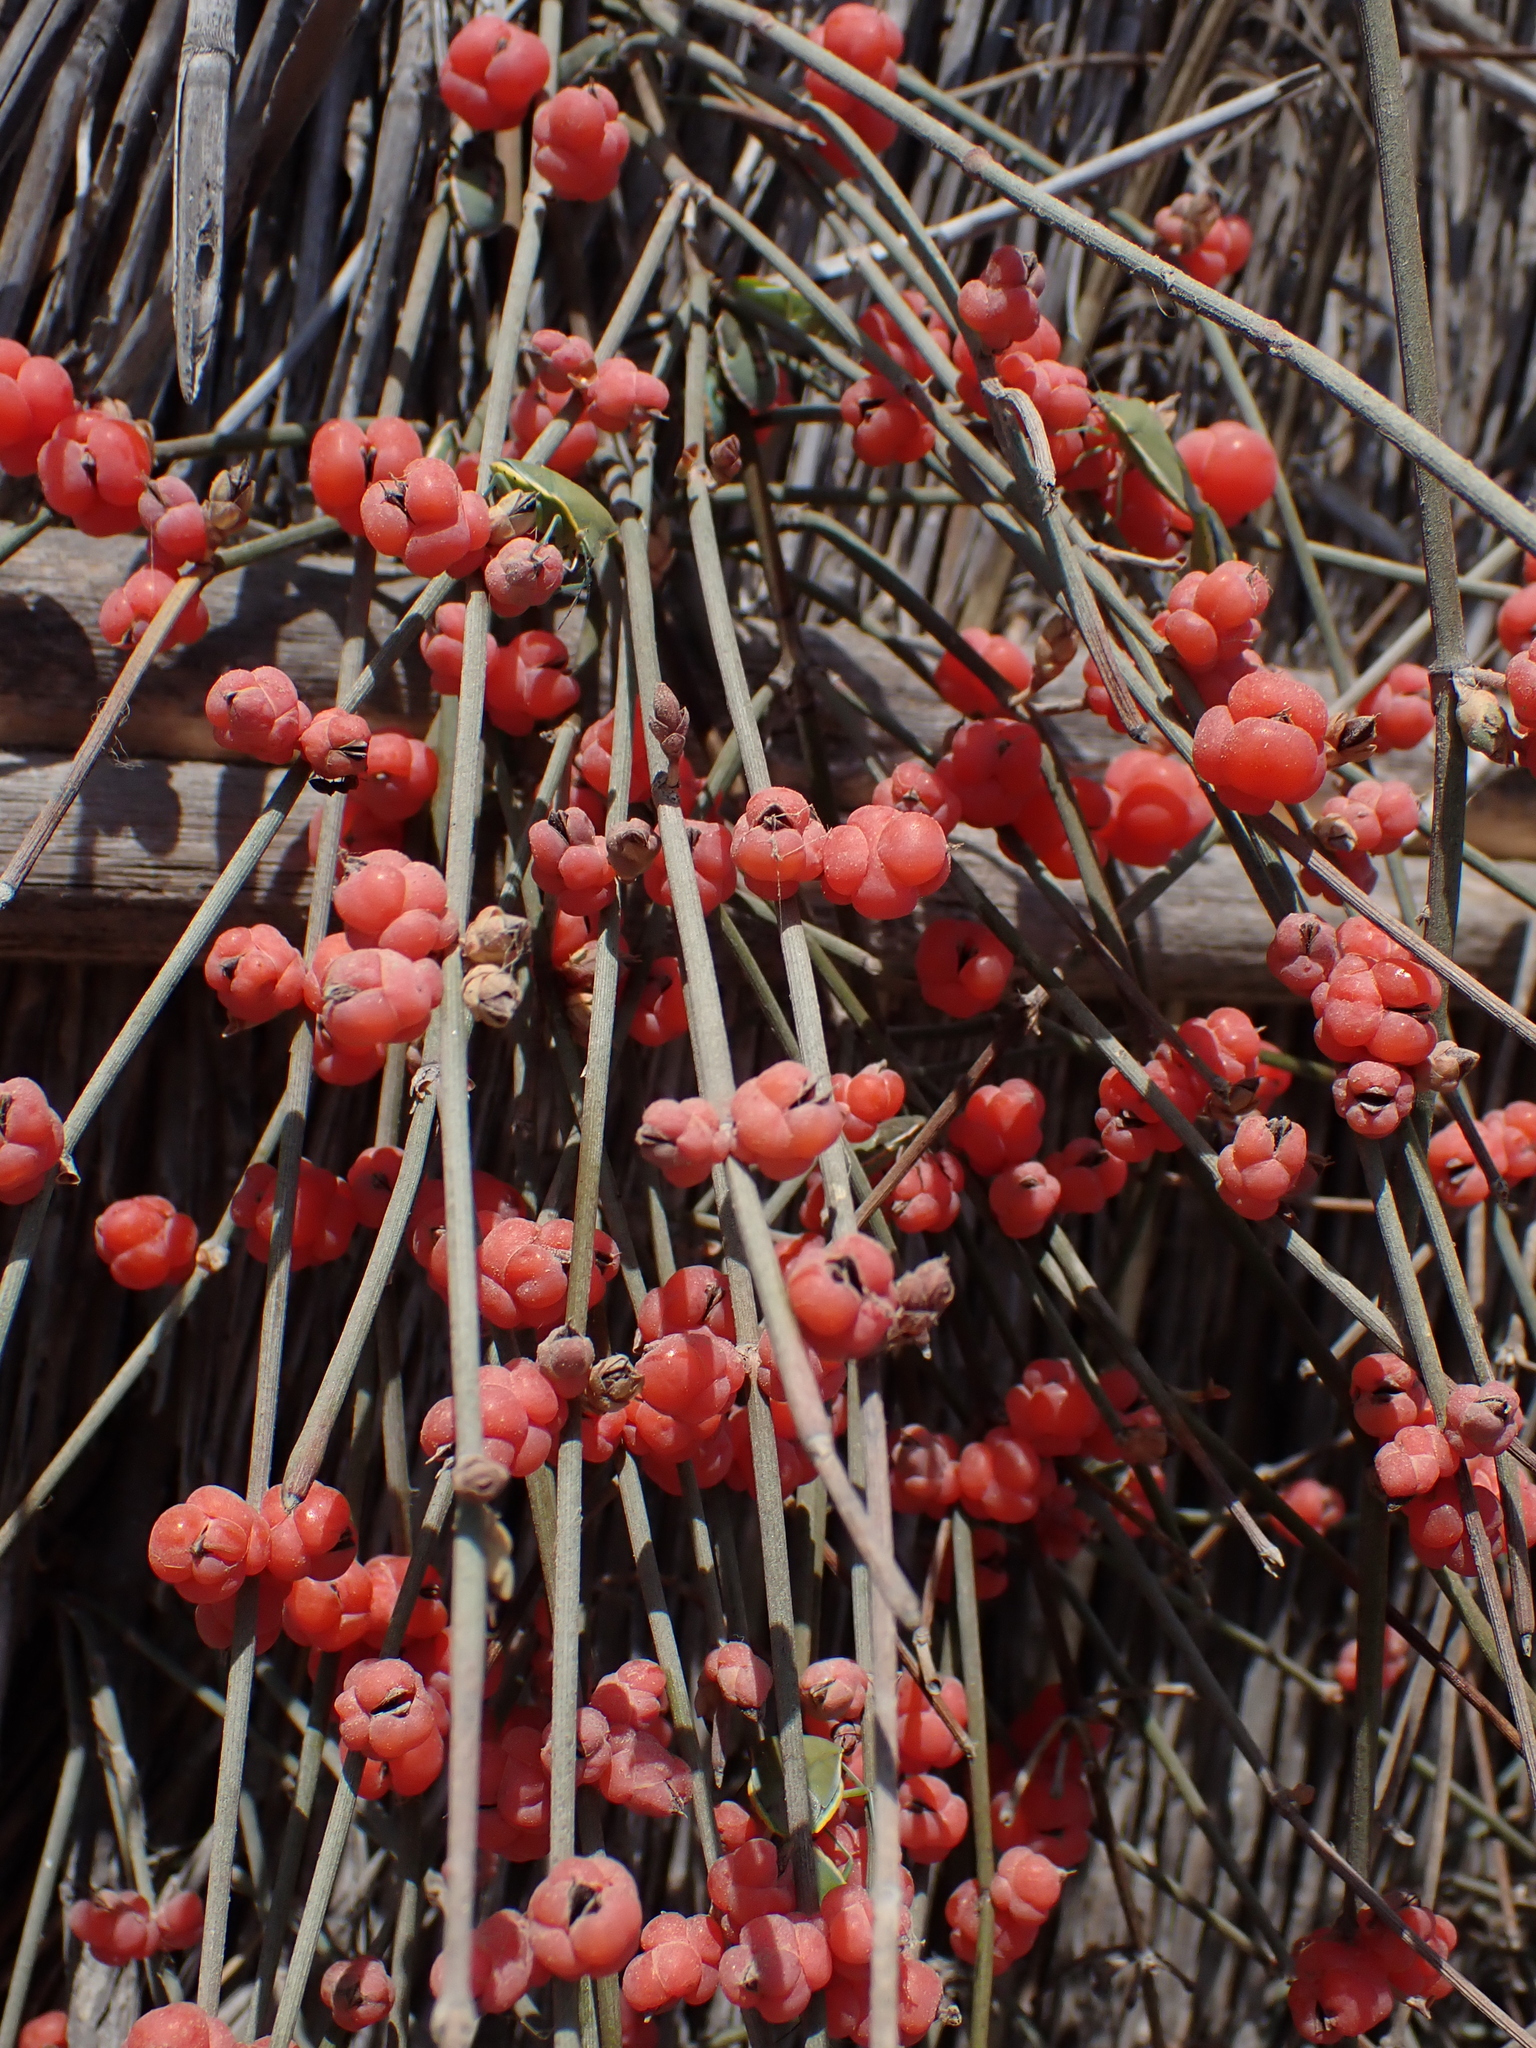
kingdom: Plantae
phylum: Tracheophyta
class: Gnetopsida
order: Ephedrales
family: Ephedraceae
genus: Ephedra
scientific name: Ephedra distachya
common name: Sea grape
